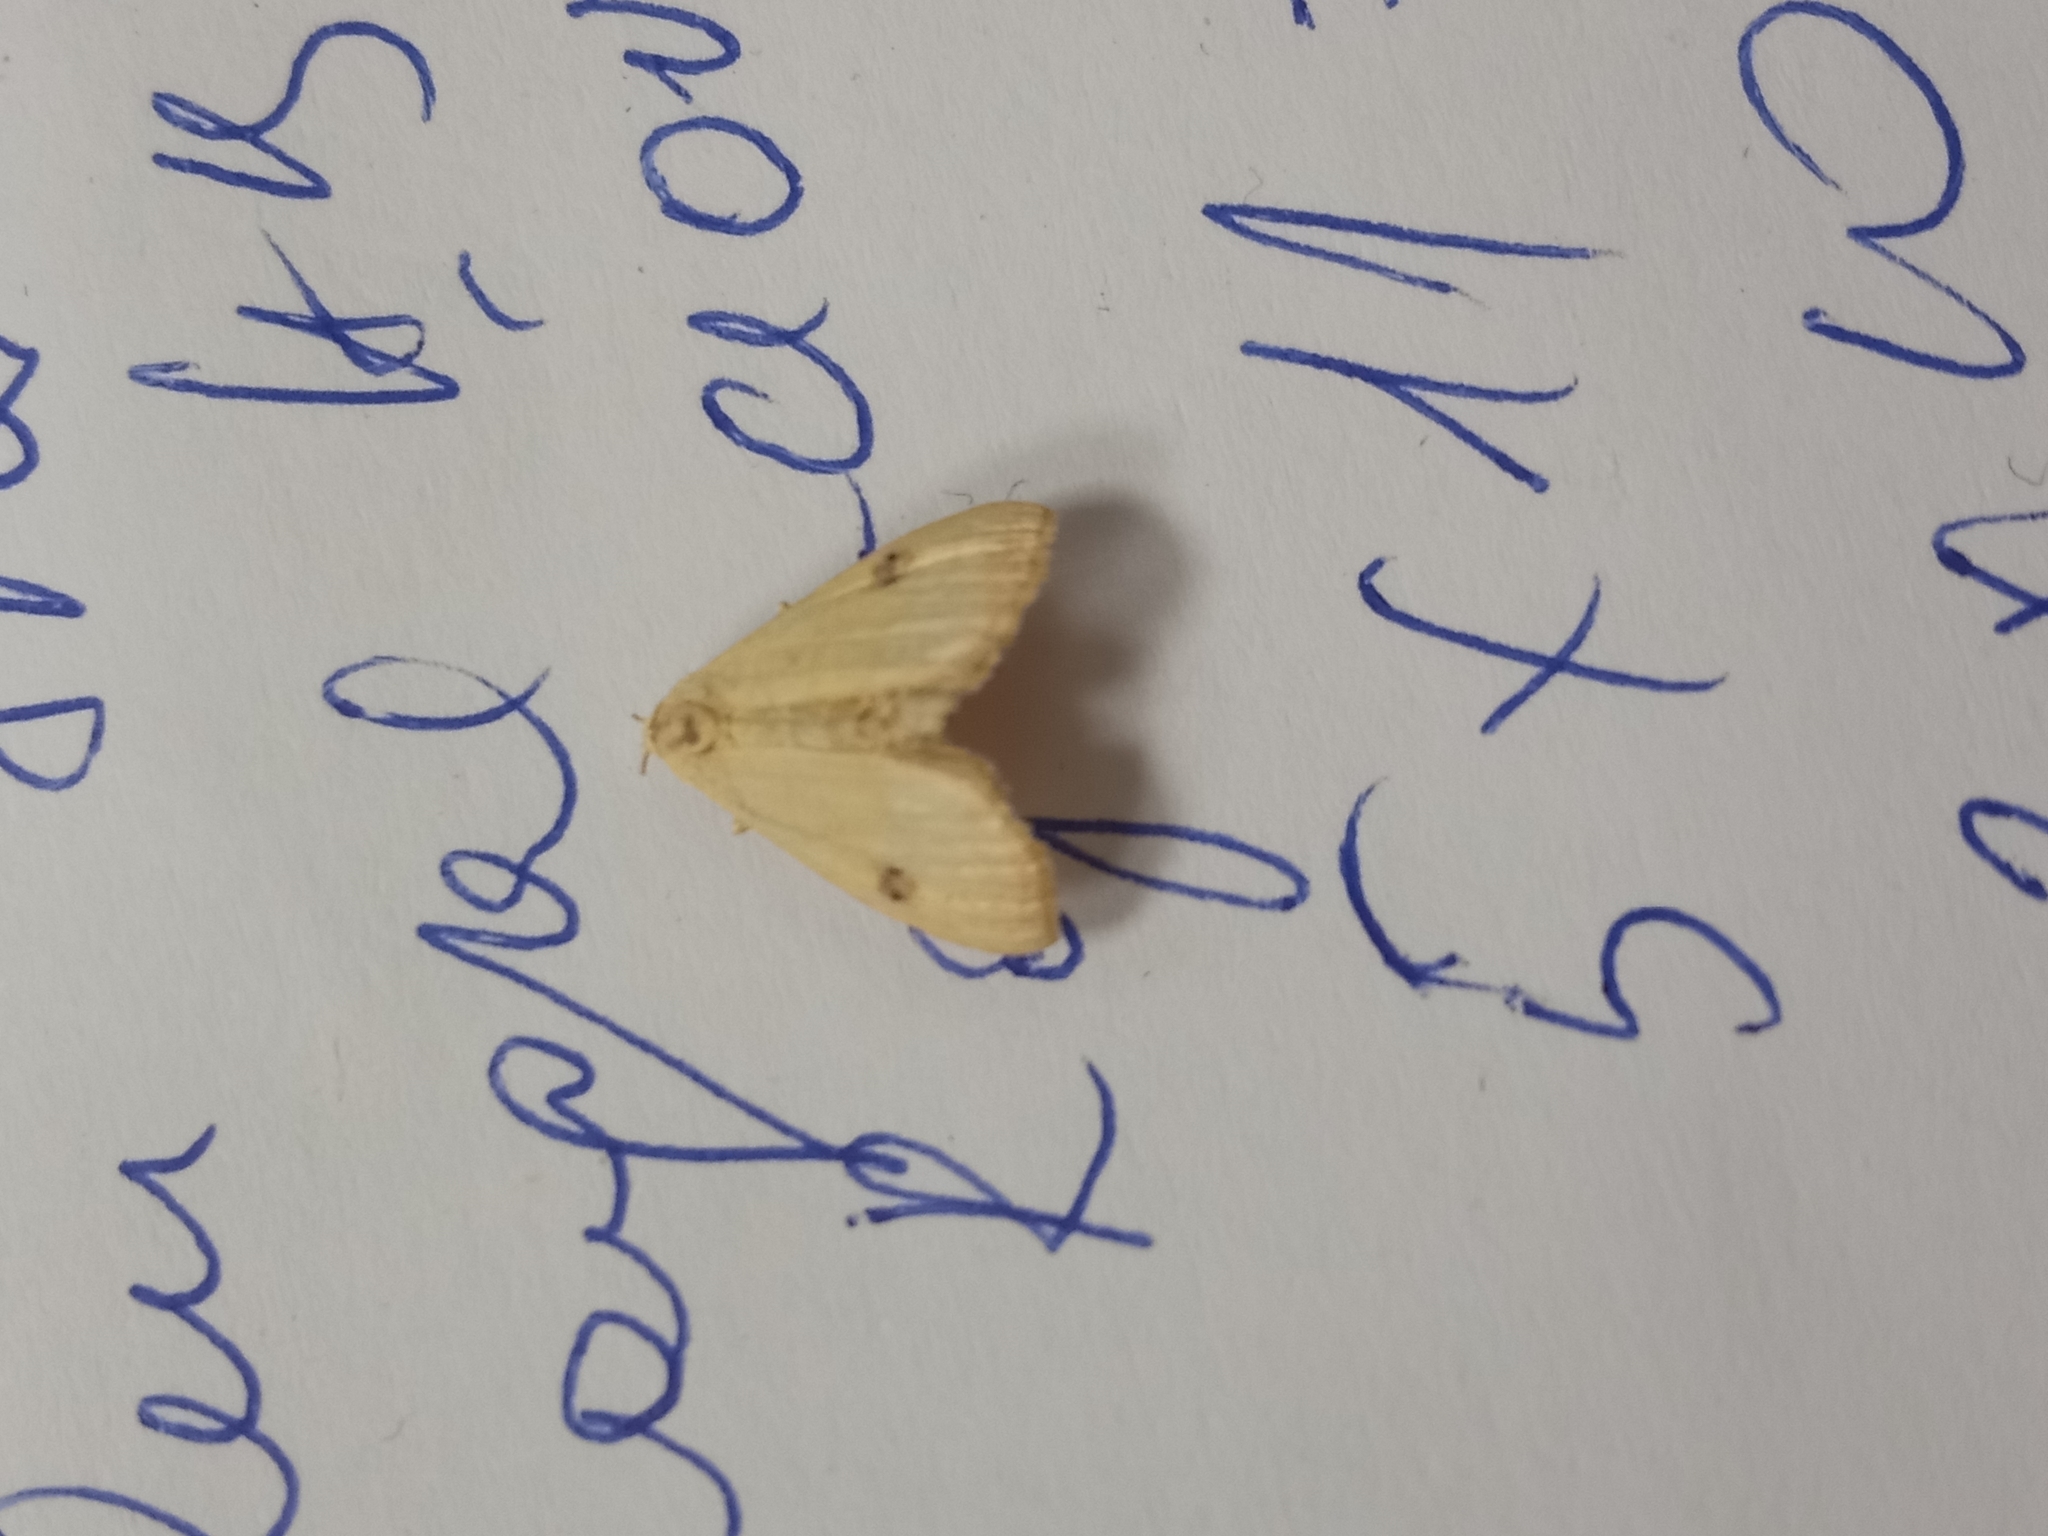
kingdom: Animalia
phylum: Arthropoda
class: Insecta
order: Lepidoptera
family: Erebidae
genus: Rivula
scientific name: Rivula sericealis
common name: Straw dot
